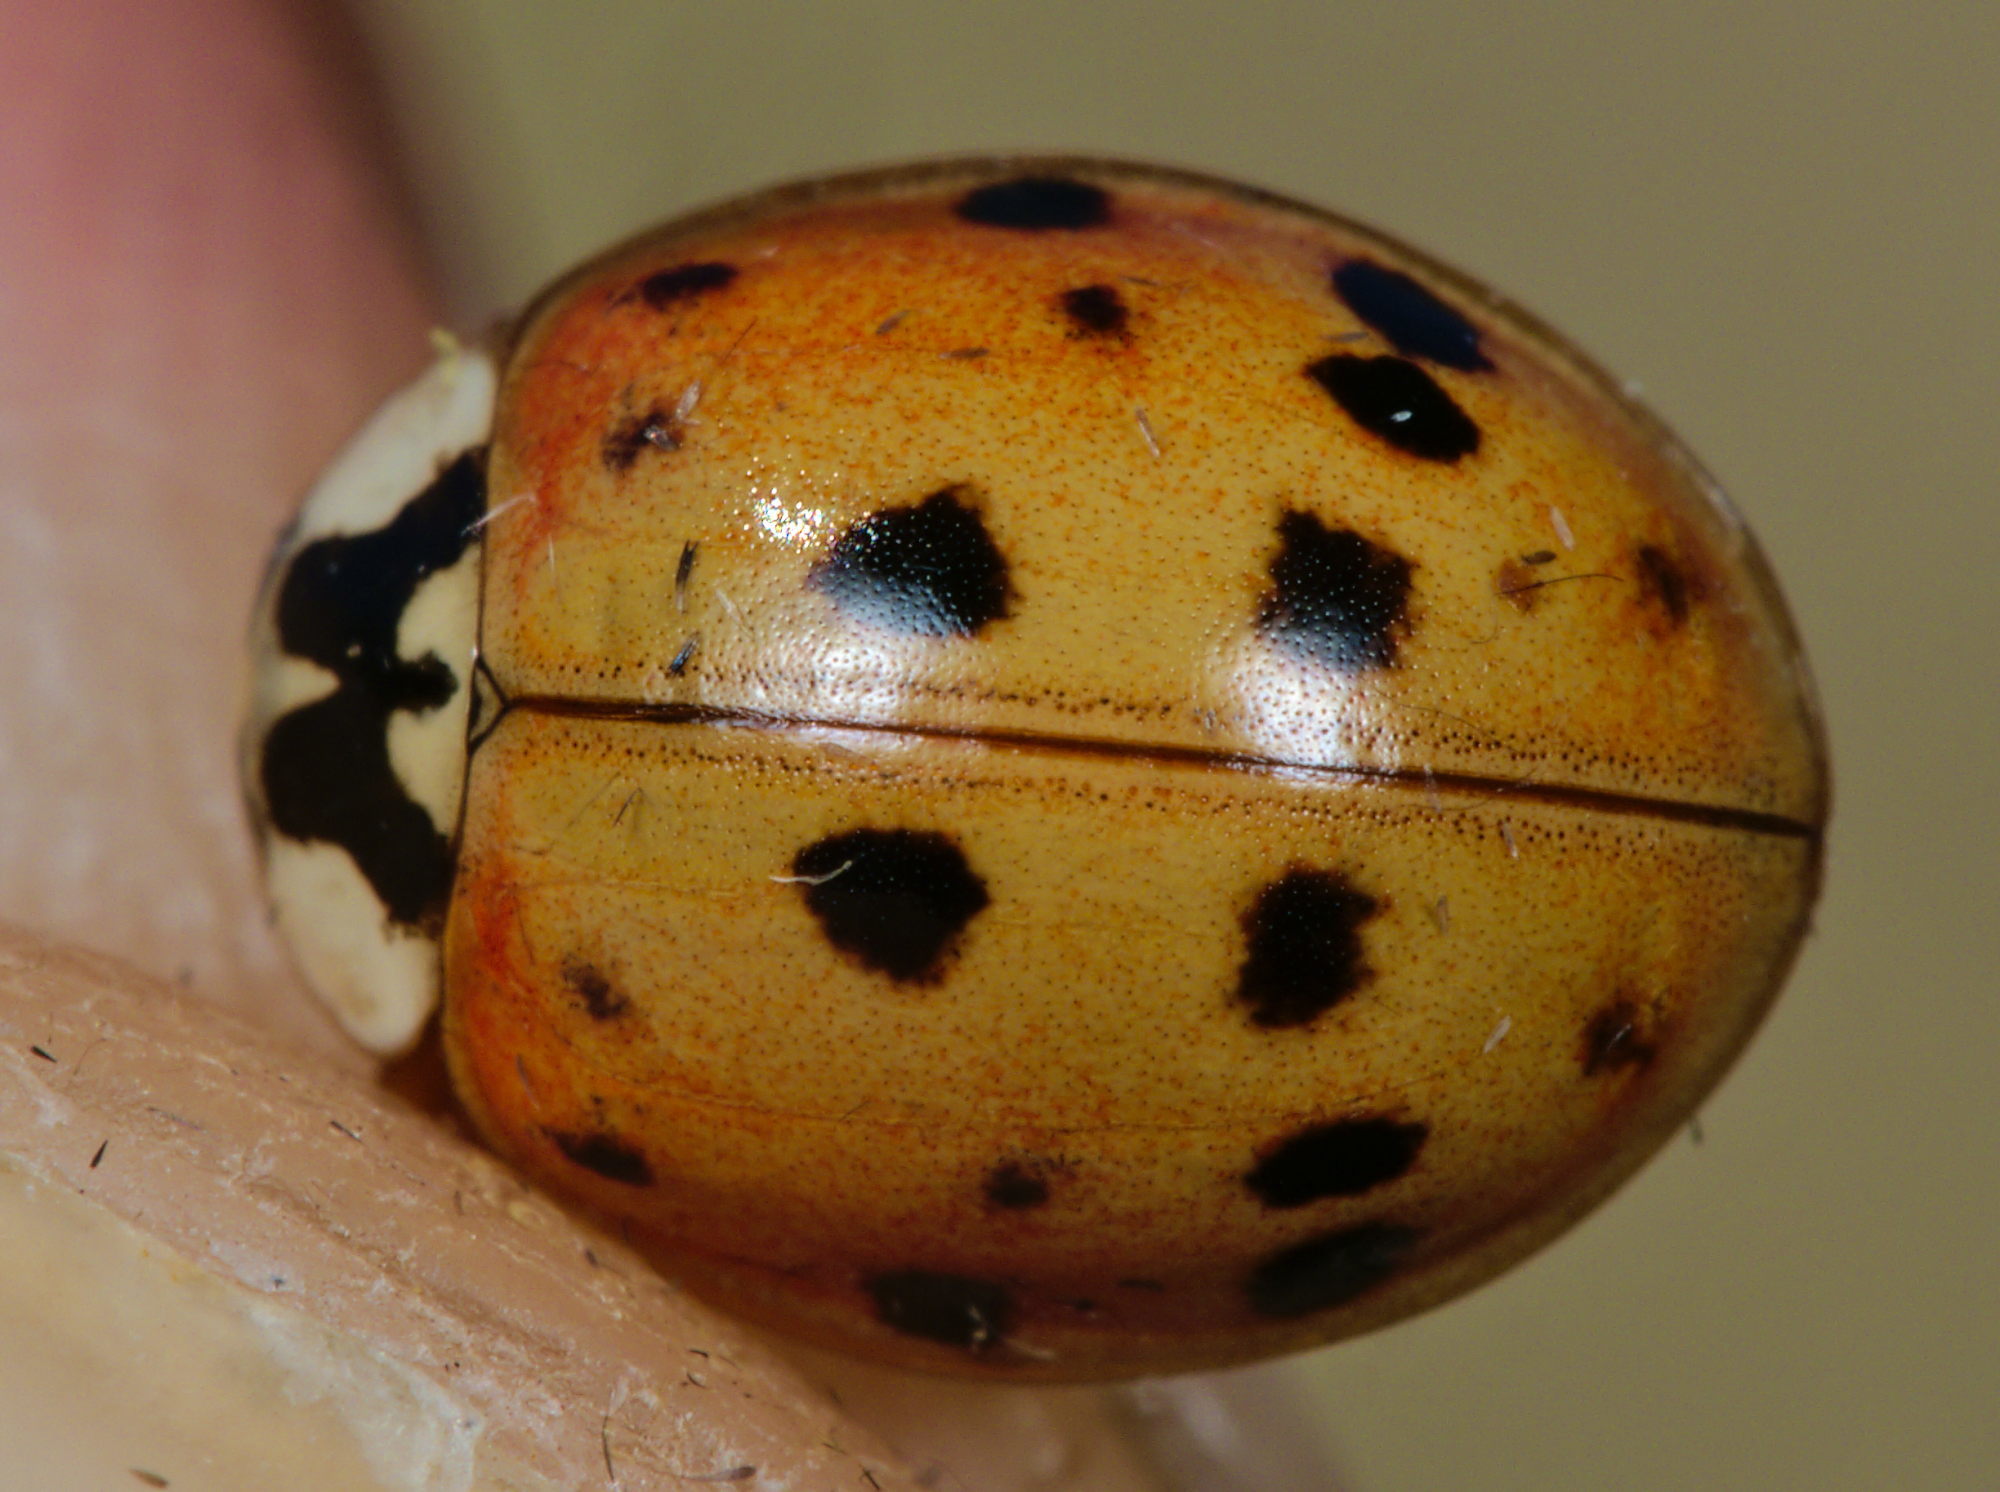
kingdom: Animalia
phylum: Arthropoda
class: Insecta
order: Coleoptera
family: Coccinellidae
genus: Harmonia
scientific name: Harmonia axyridis
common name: Harlequin ladybird
